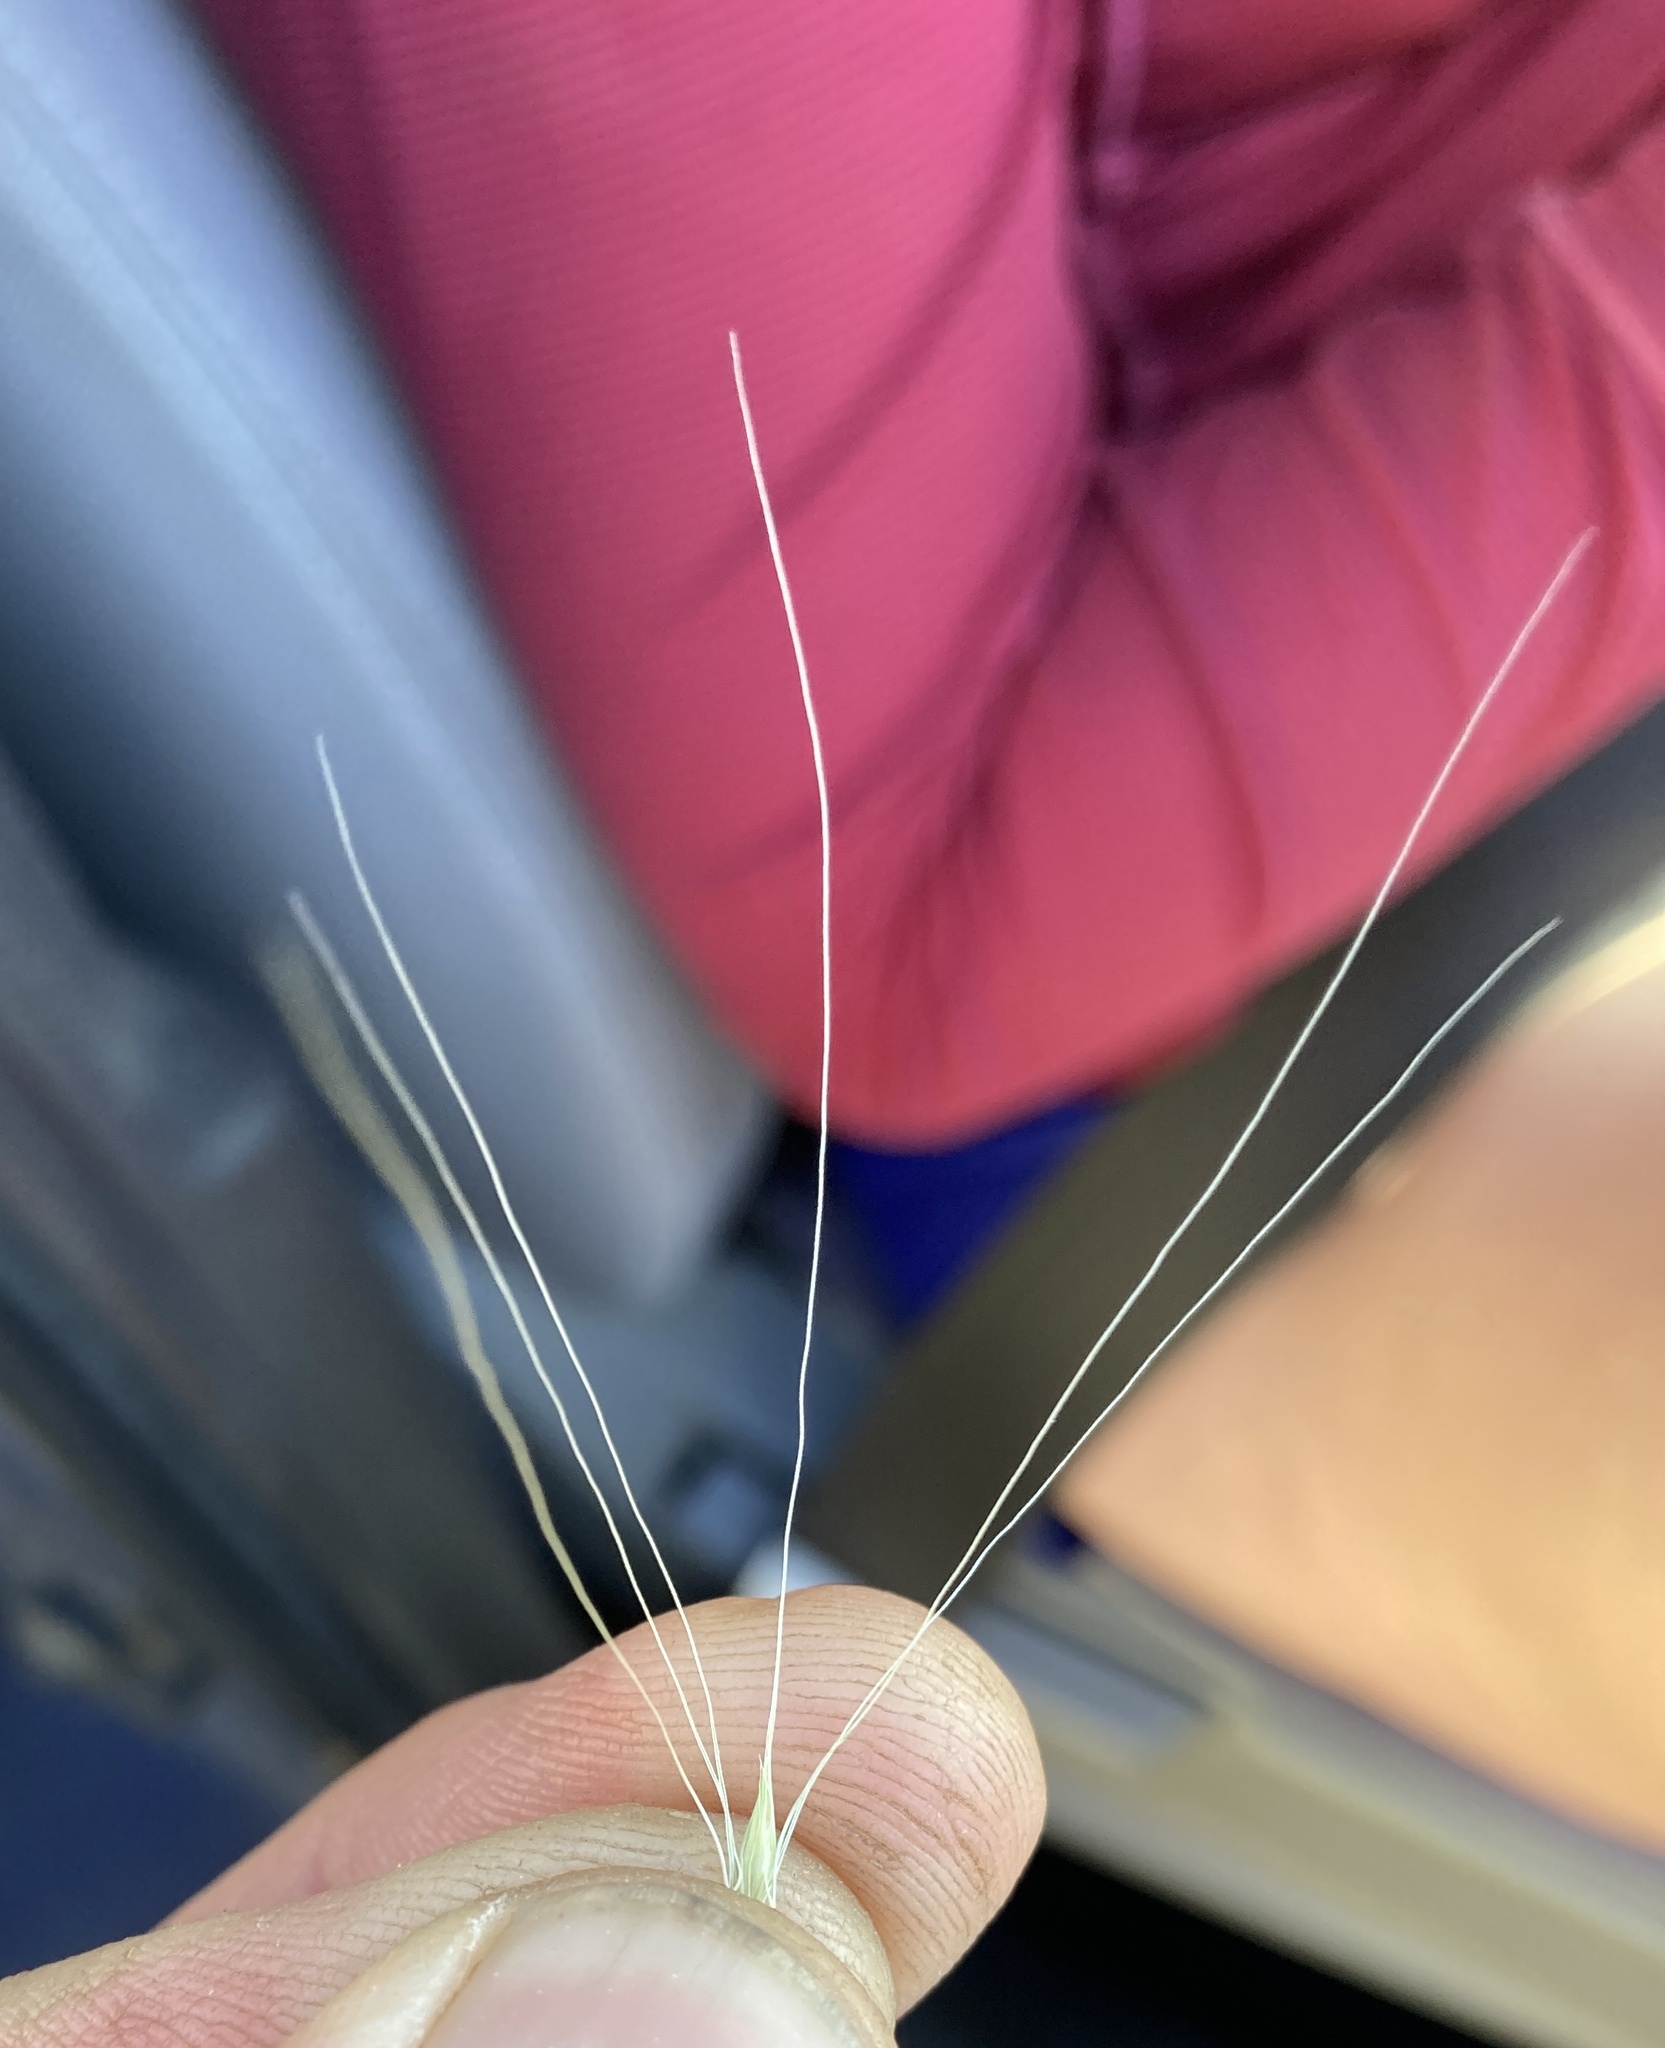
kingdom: Plantae
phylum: Tracheophyta
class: Liliopsida
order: Poales
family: Poaceae
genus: Hordeum
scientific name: Hordeum jubatum
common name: Foxtail barley
